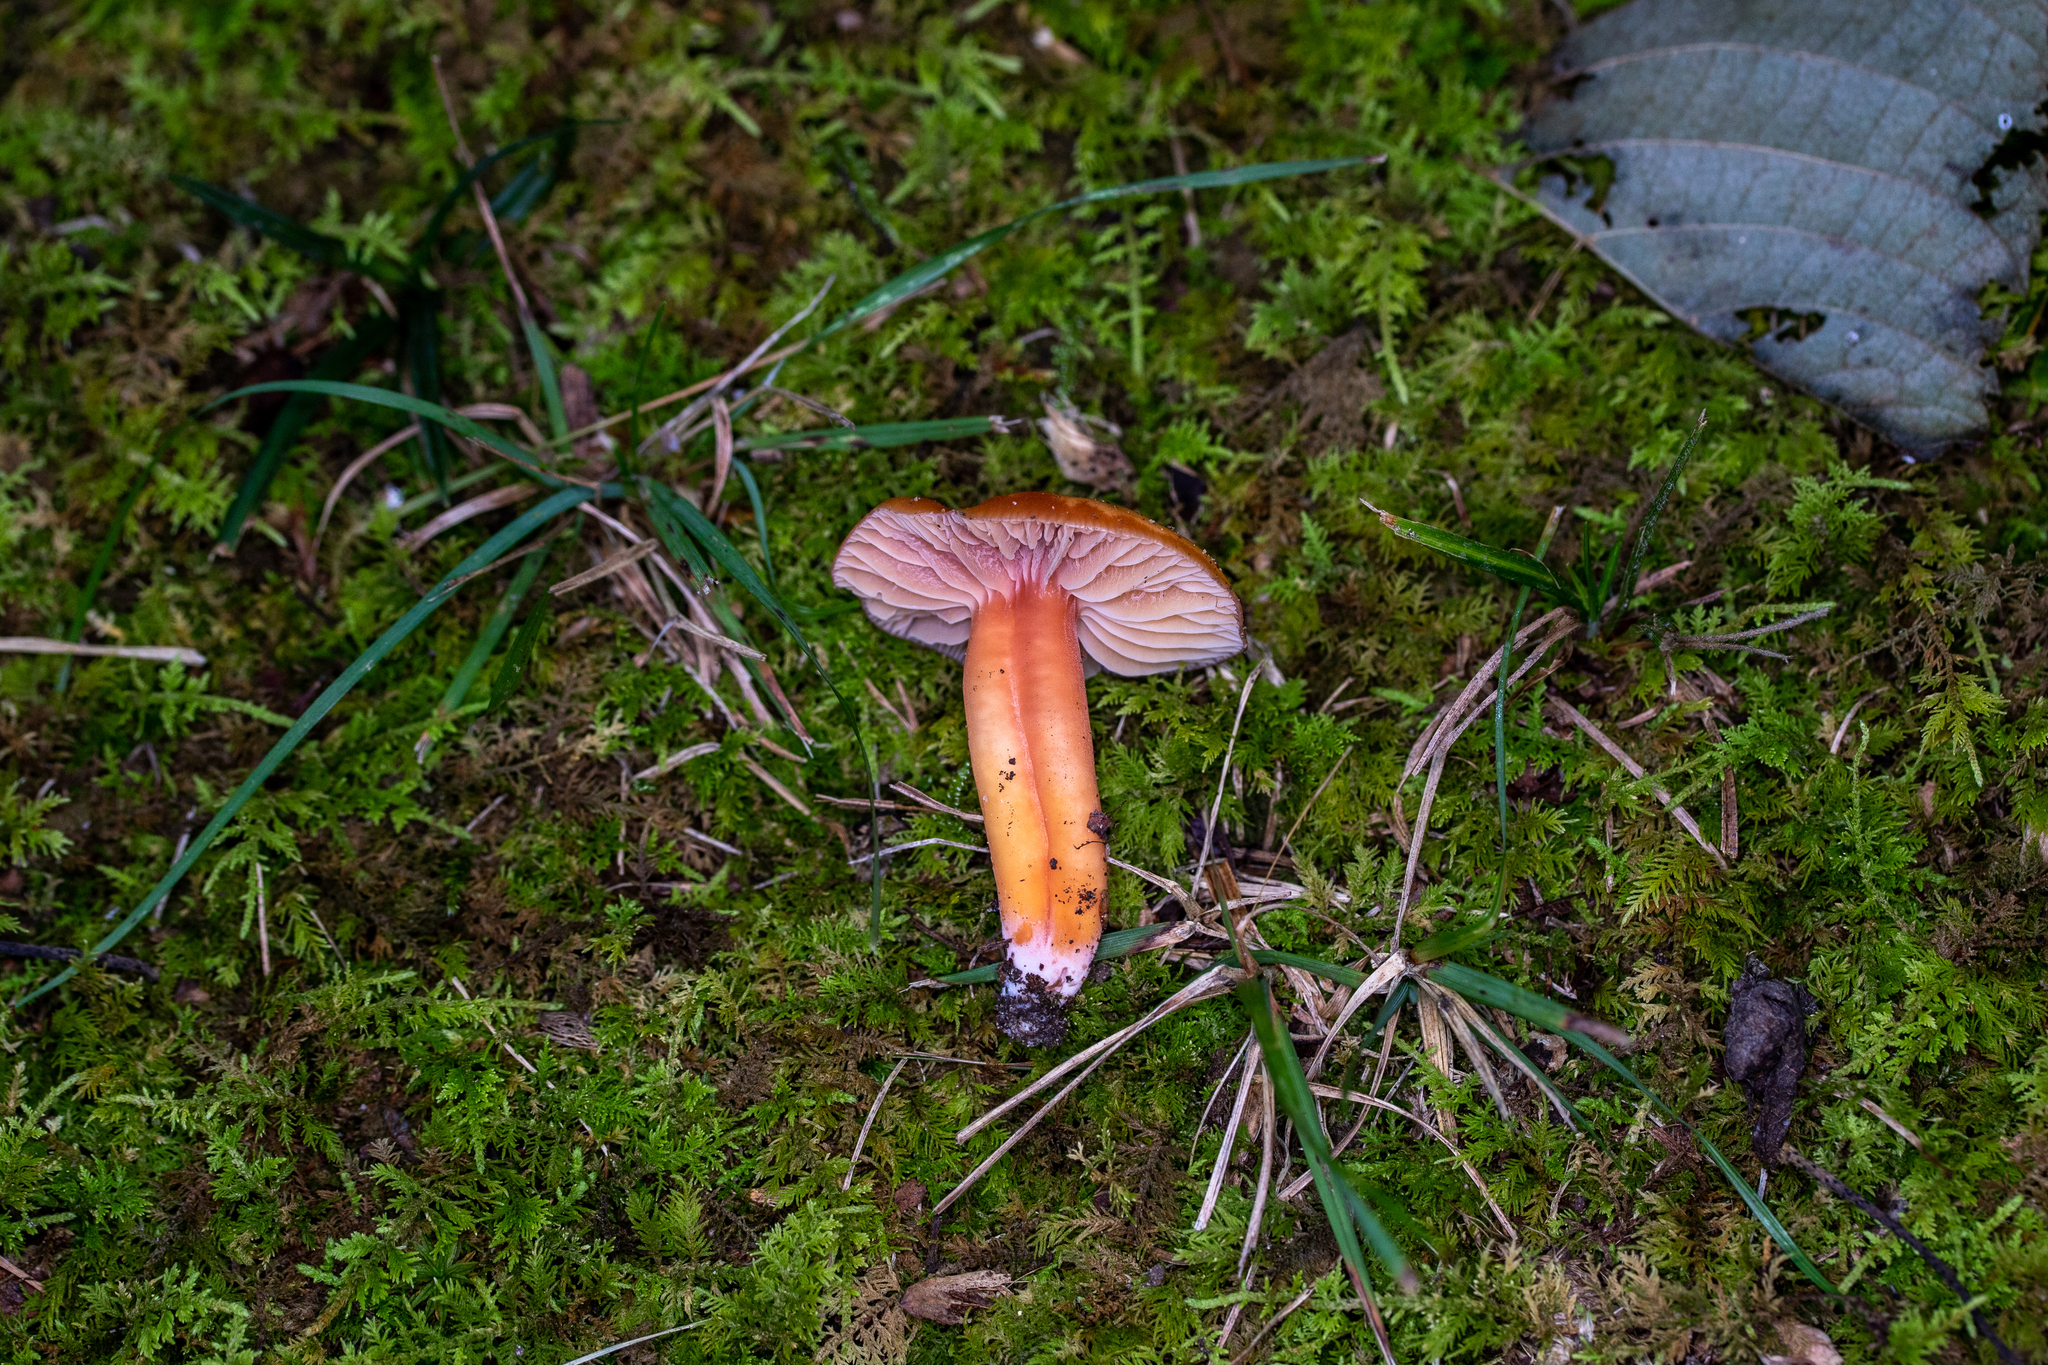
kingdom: Fungi
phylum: Basidiomycota
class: Agaricomycetes
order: Agaricales
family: Hygrophoraceae
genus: Gliophorus
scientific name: Gliophorus psittacinus
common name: Parrot wax-cap
